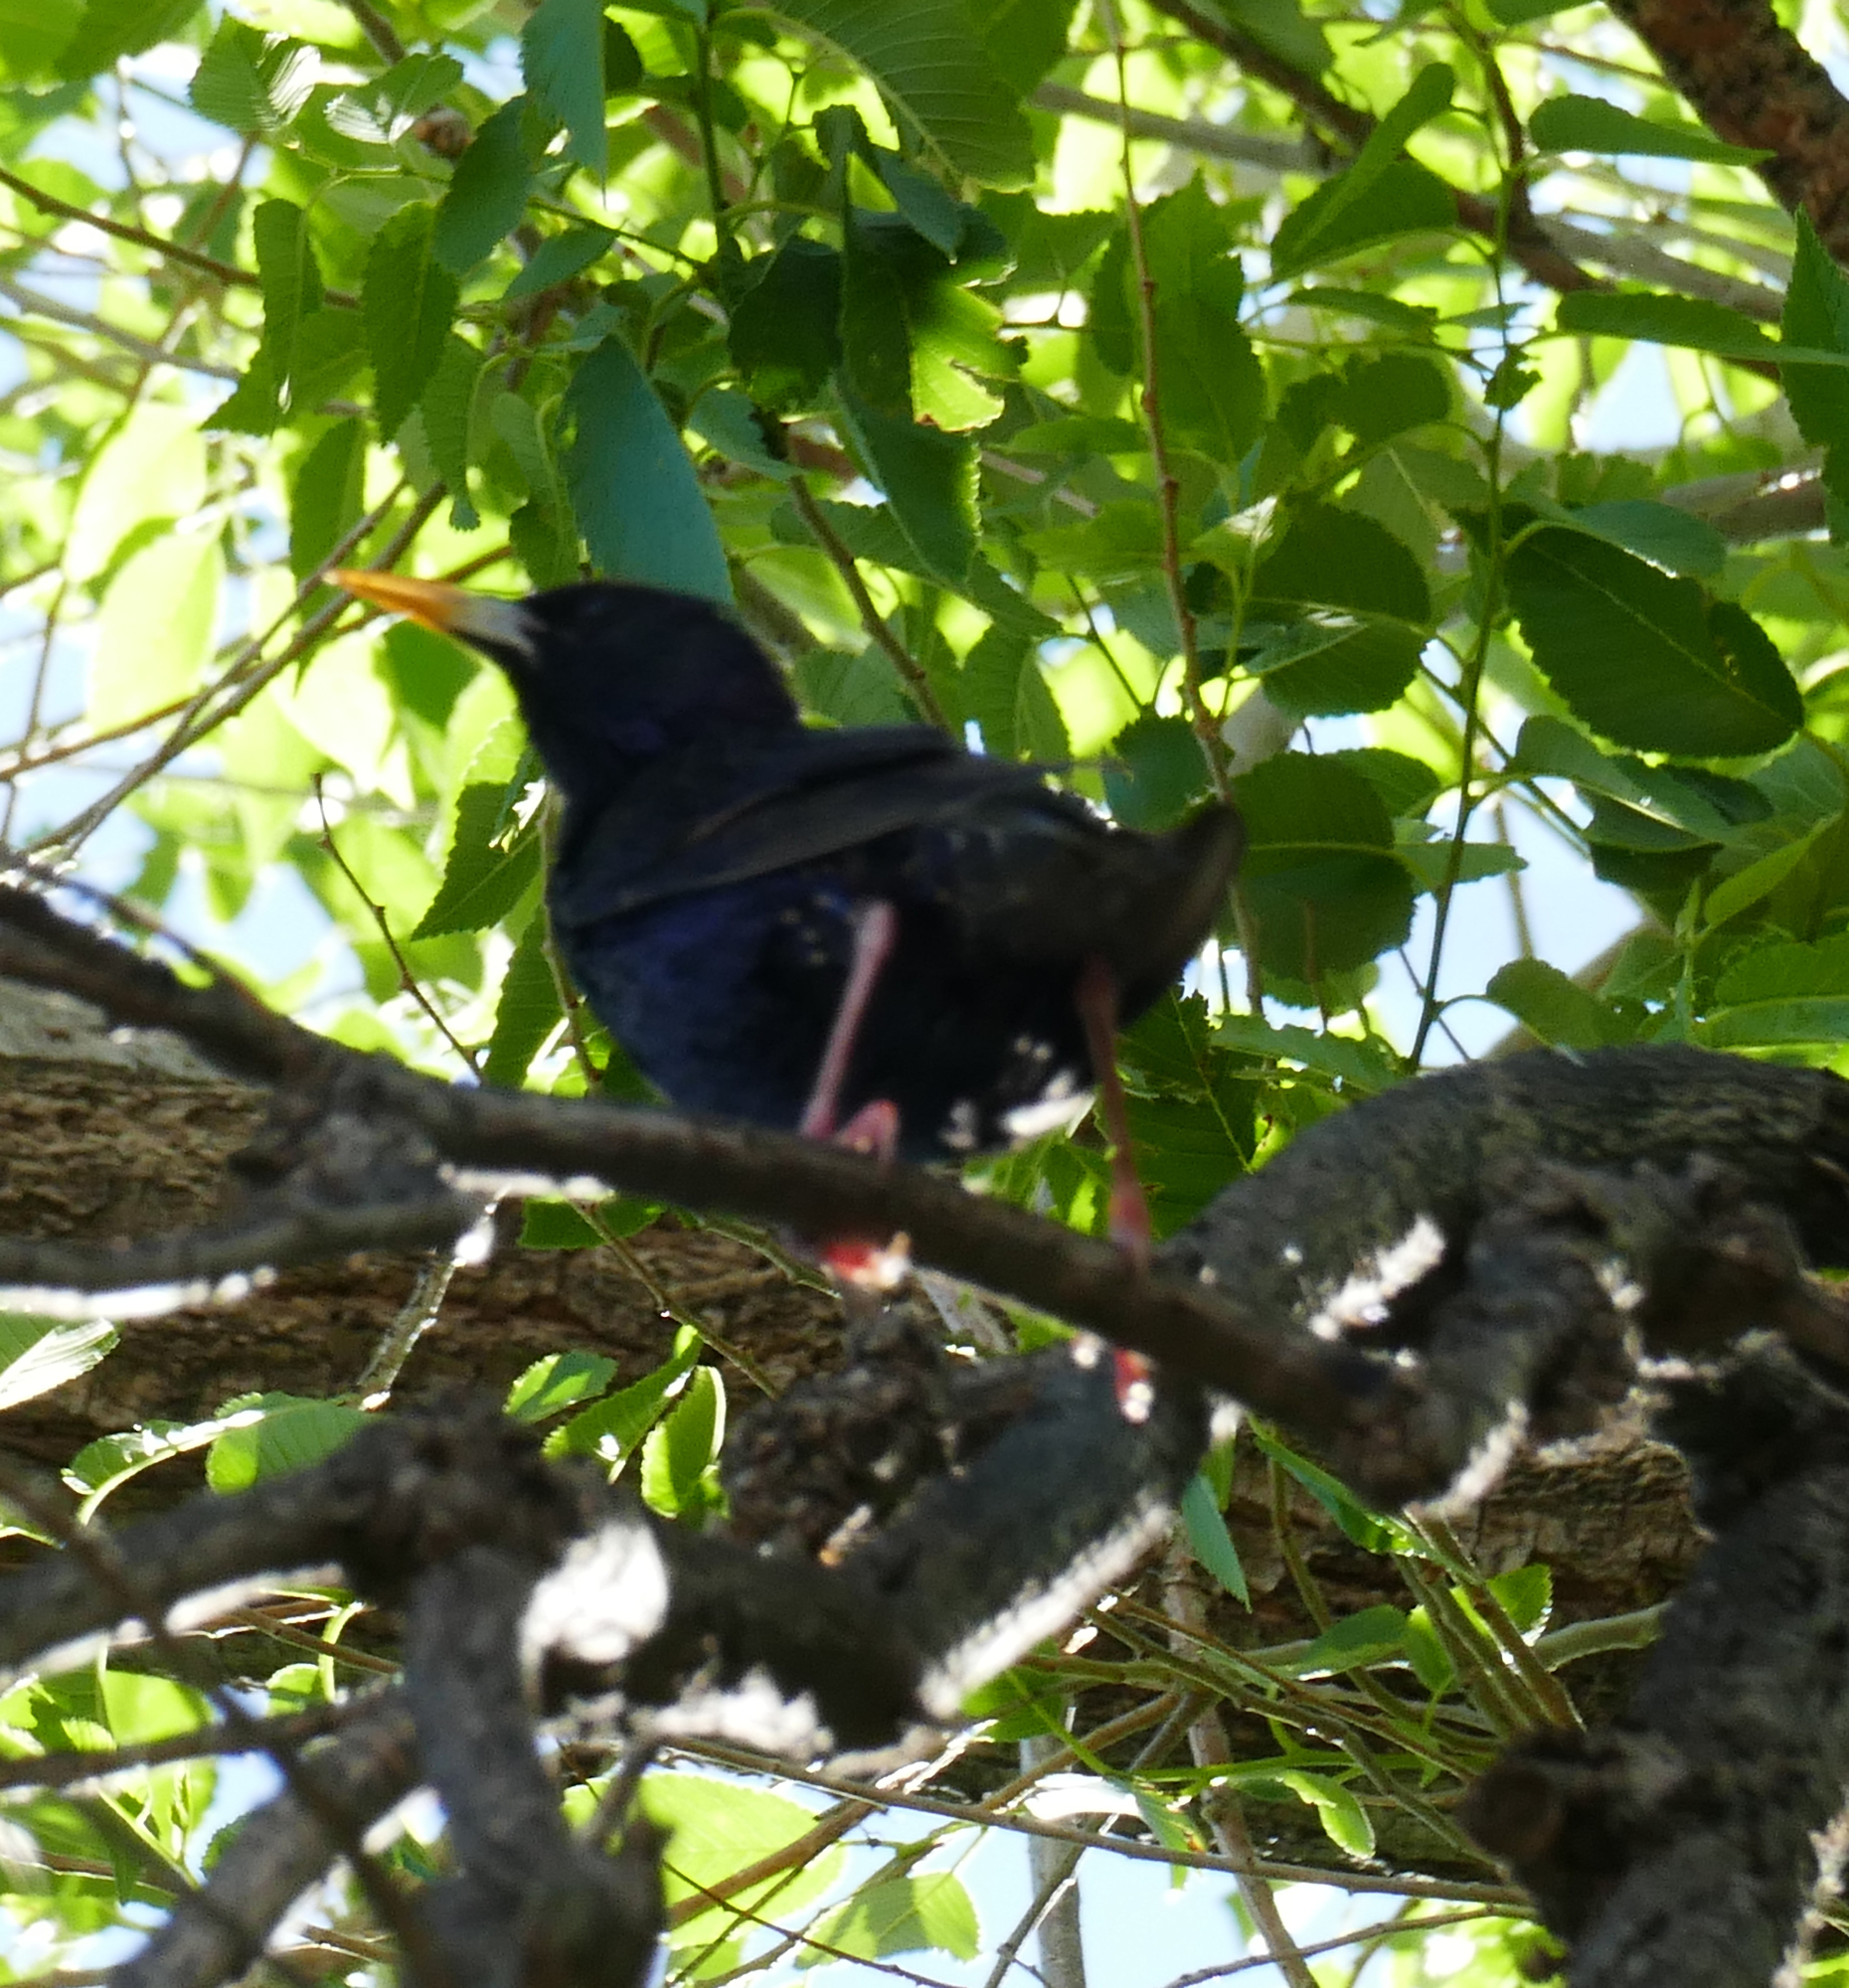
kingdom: Animalia
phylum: Chordata
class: Aves
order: Passeriformes
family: Sturnidae
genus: Sturnus
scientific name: Sturnus vulgaris
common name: Common starling
